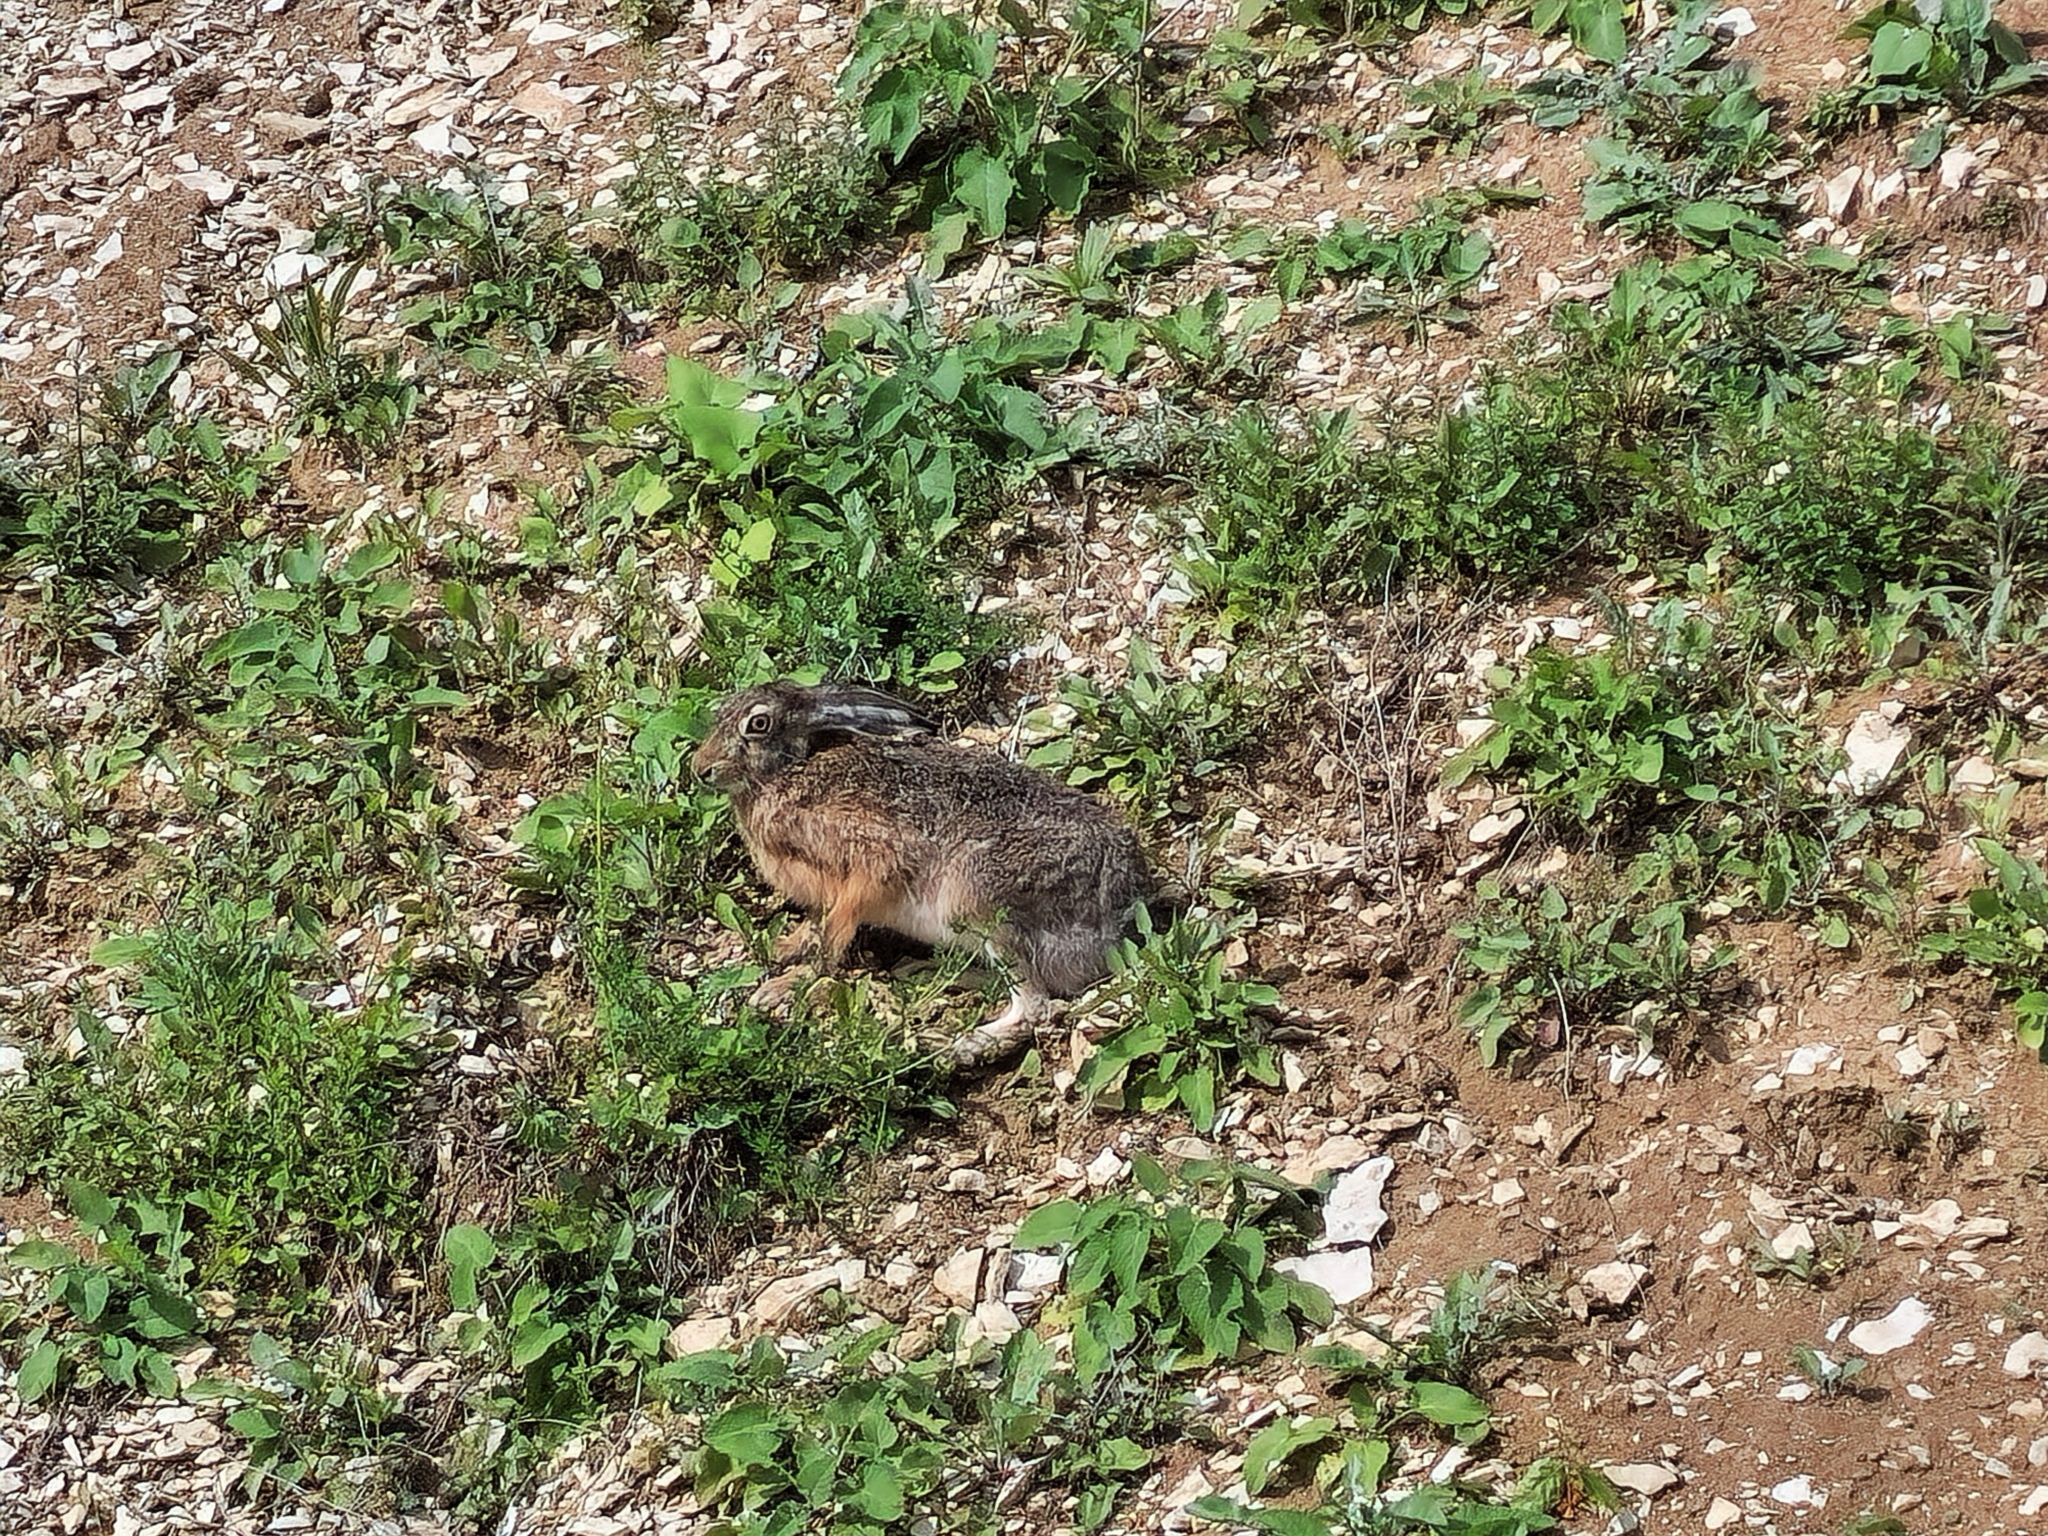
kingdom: Animalia
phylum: Chordata
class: Mammalia
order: Lagomorpha
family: Leporidae
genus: Lepus
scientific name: Lepus europaeus
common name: European hare
